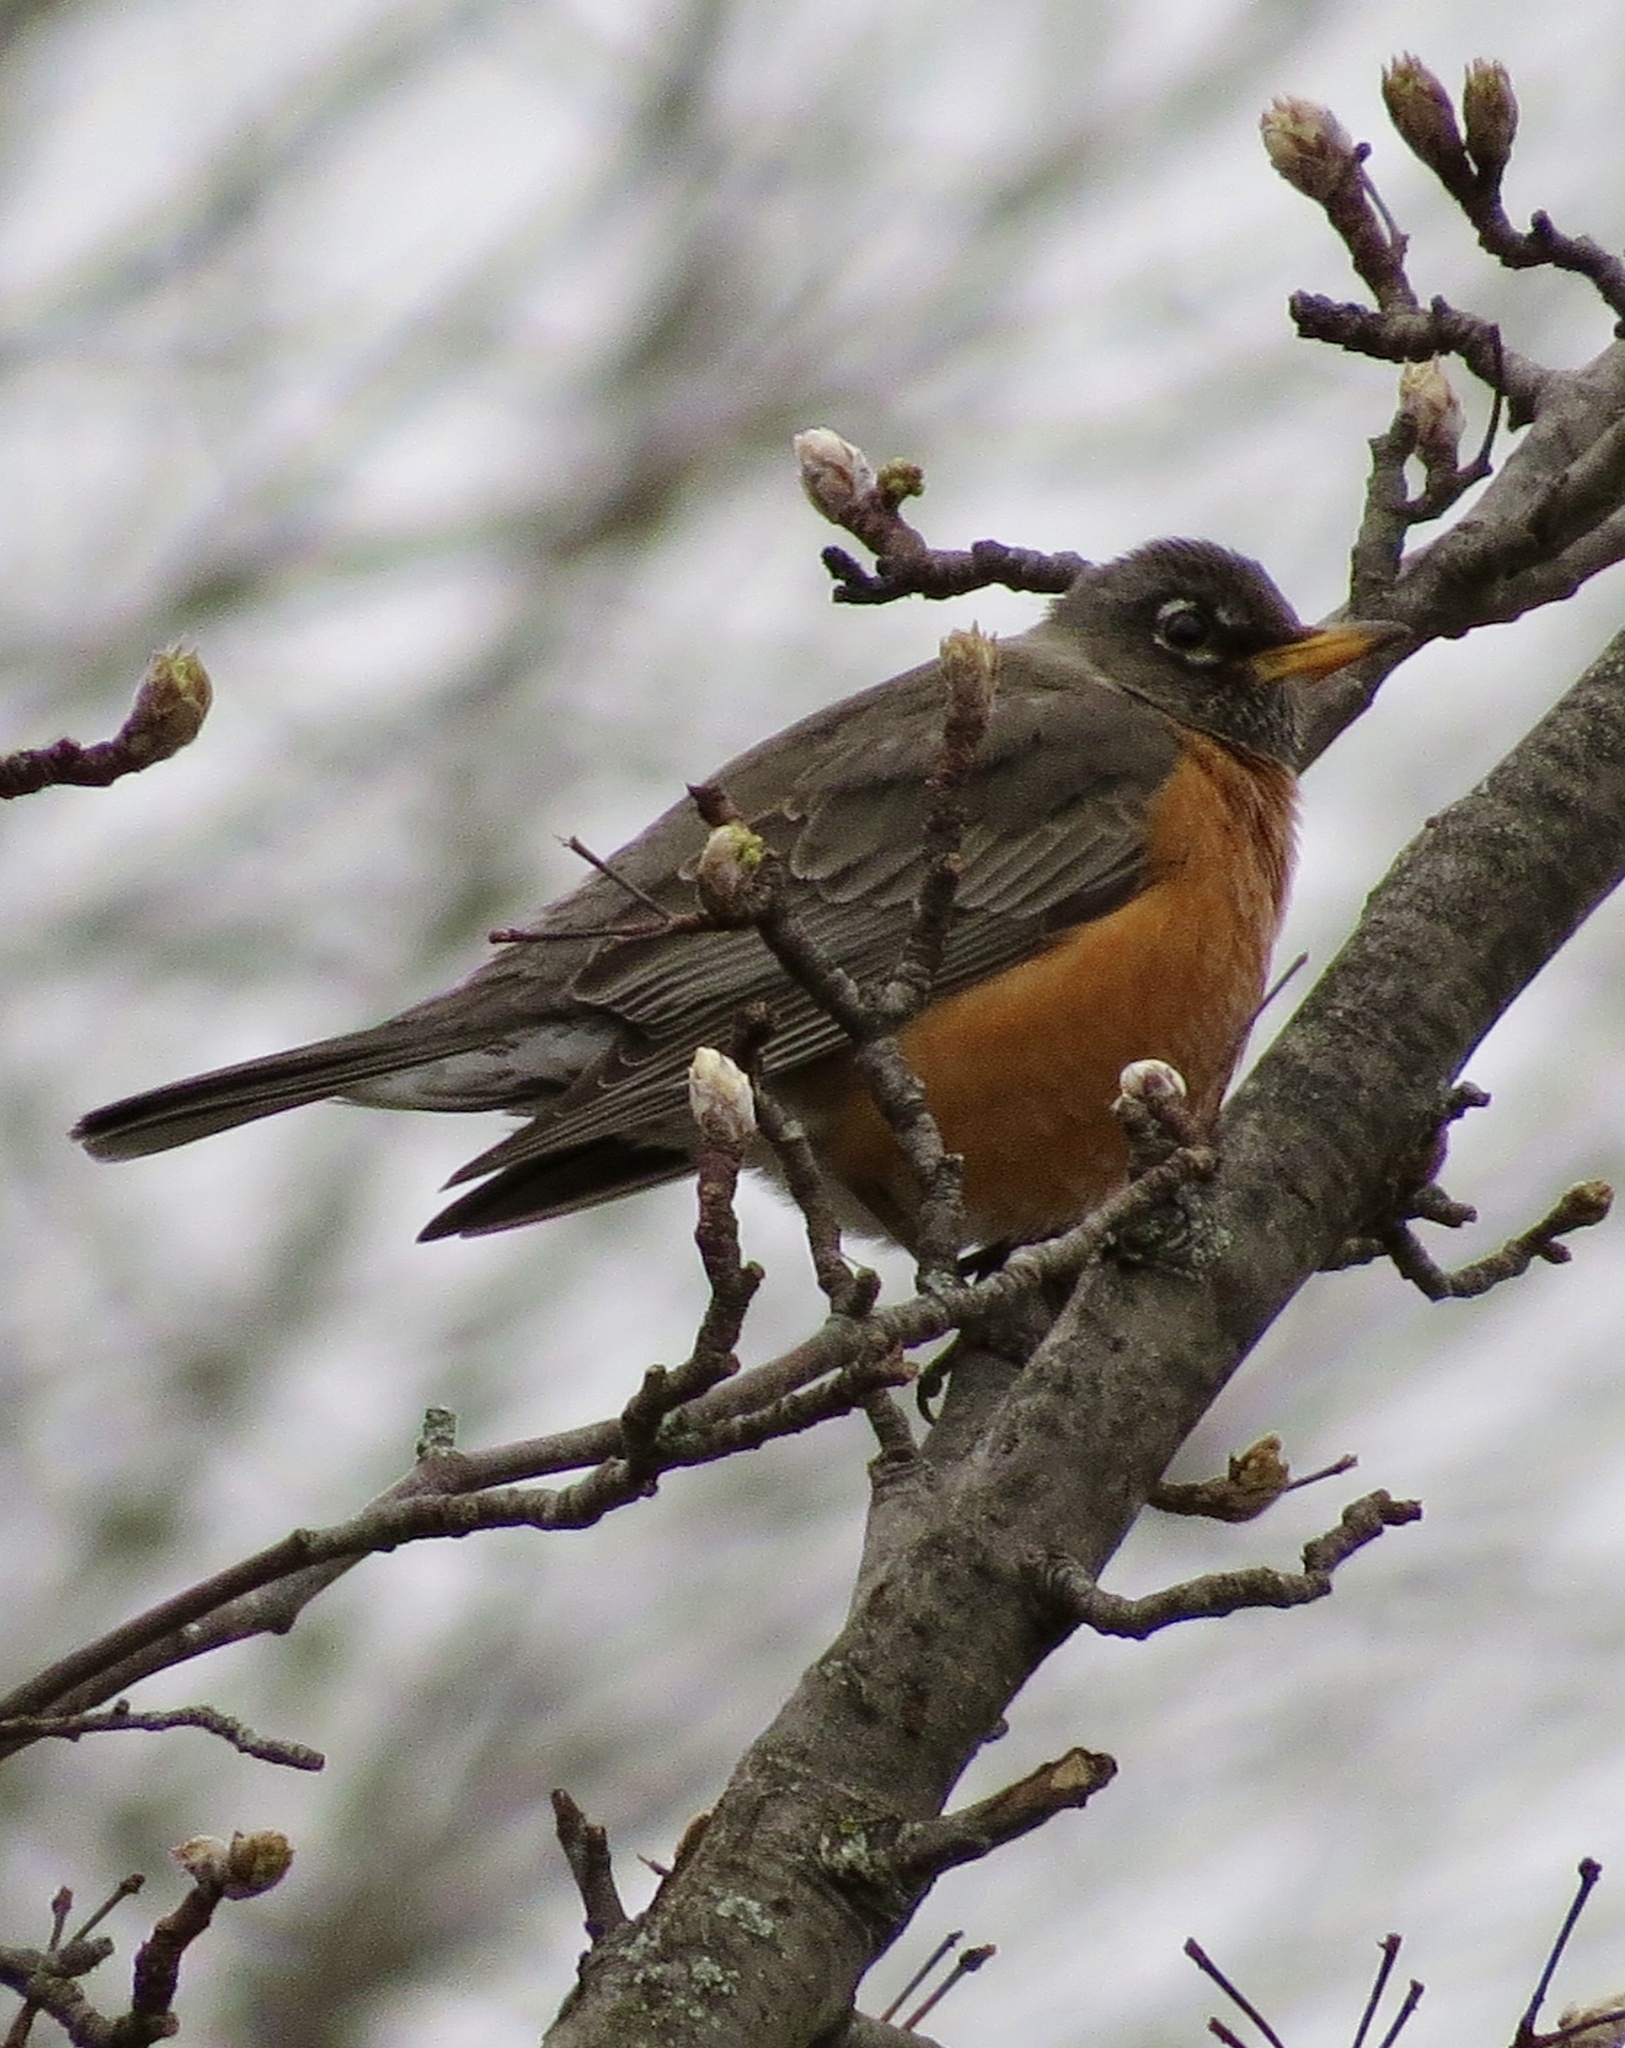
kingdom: Animalia
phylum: Chordata
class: Aves
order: Passeriformes
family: Turdidae
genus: Turdus
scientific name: Turdus migratorius
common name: American robin
